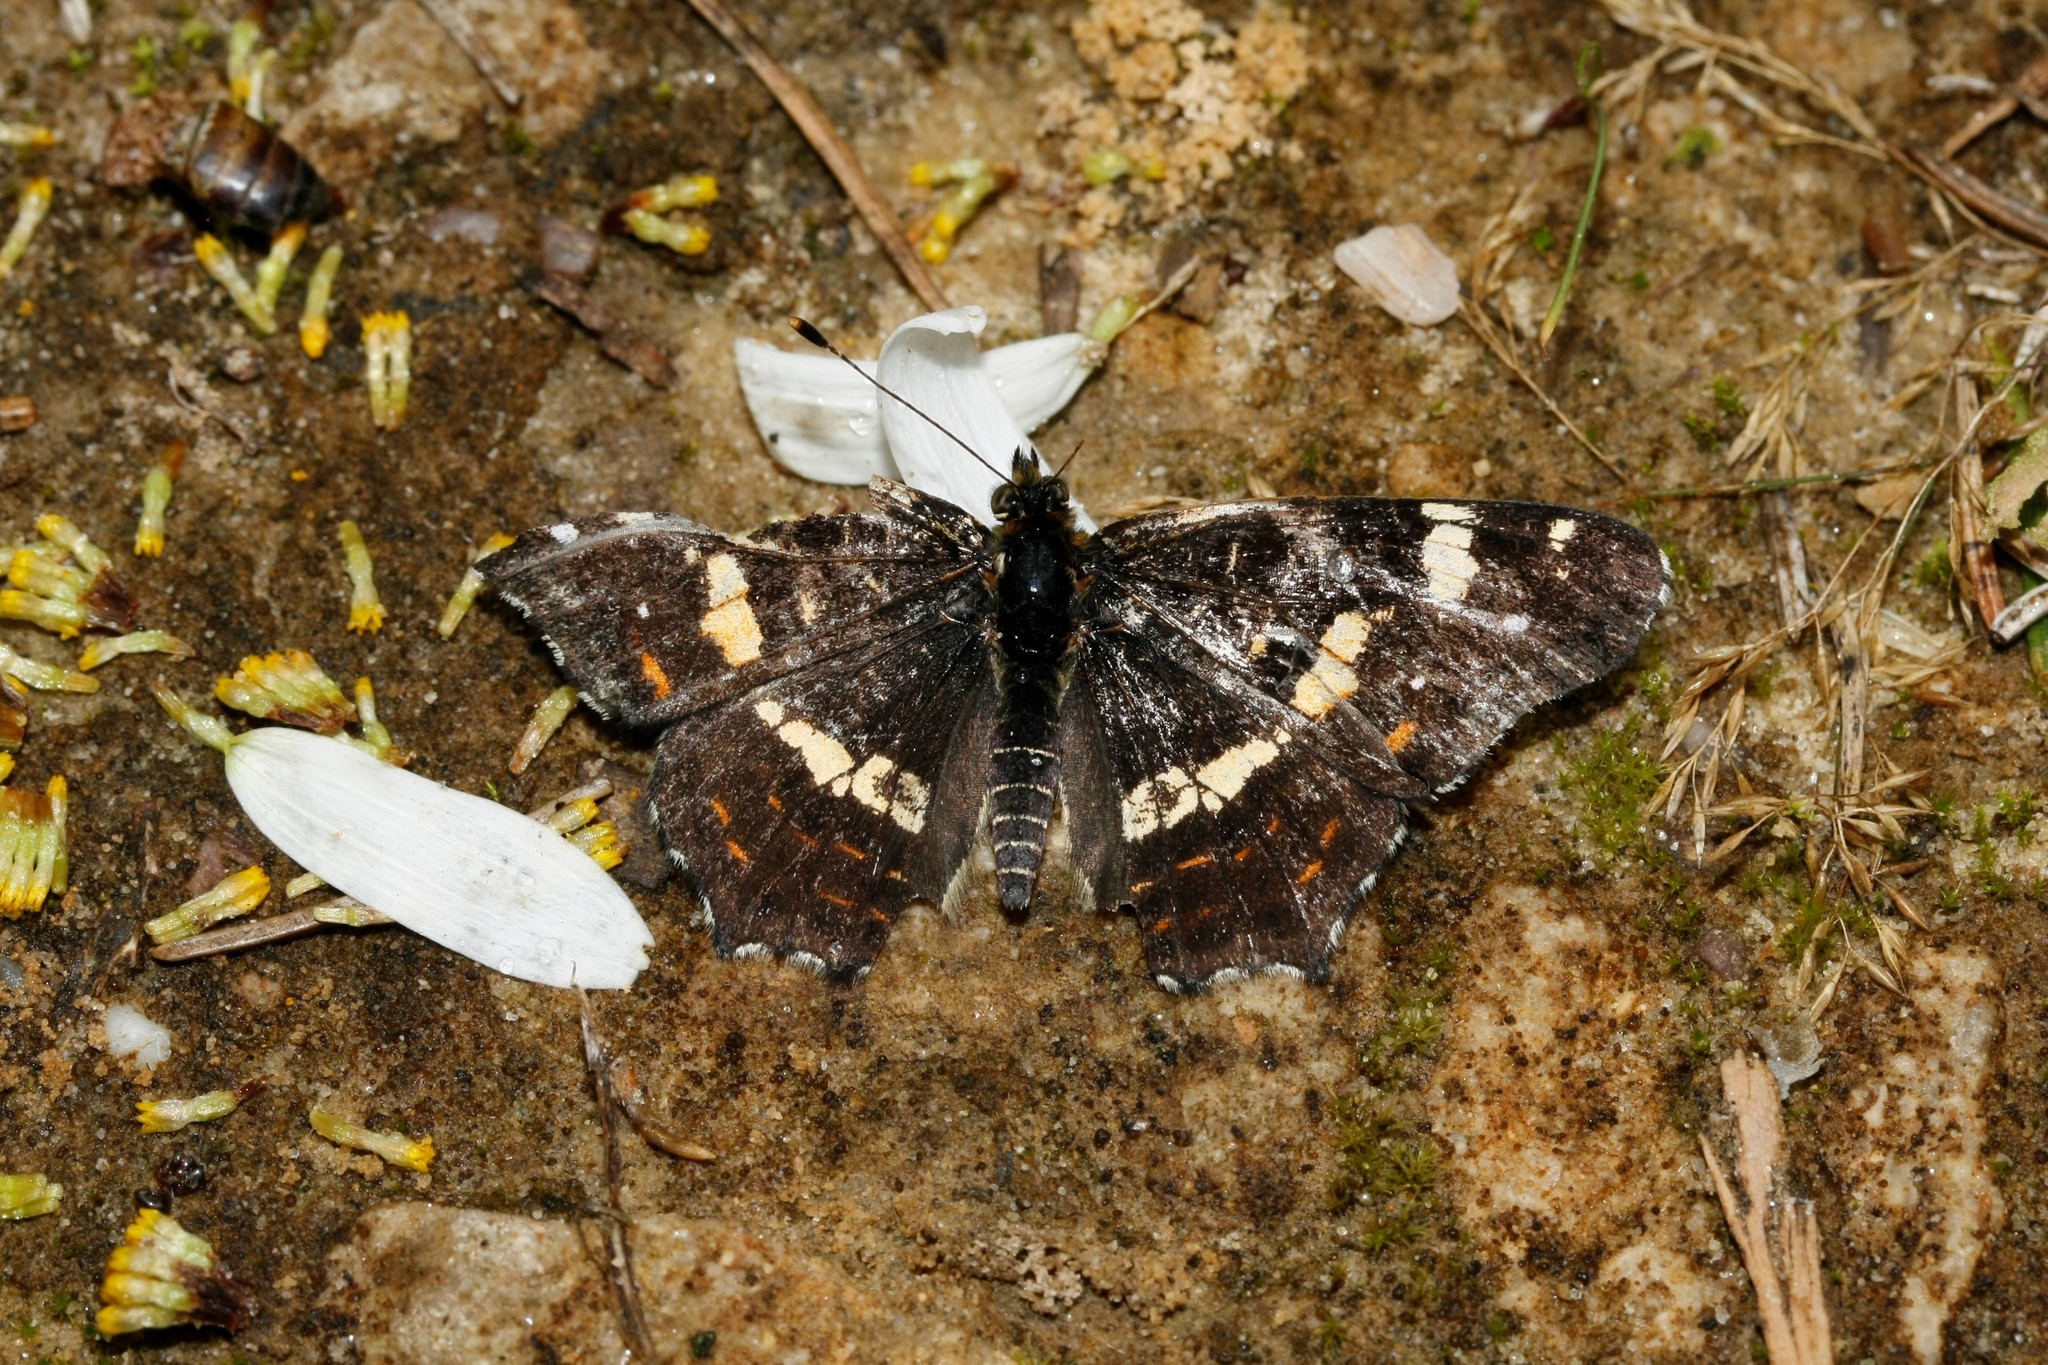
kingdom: Animalia
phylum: Arthropoda
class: Insecta
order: Lepidoptera
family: Nymphalidae
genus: Araschnia
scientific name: Araschnia levana
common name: Map butterfly
